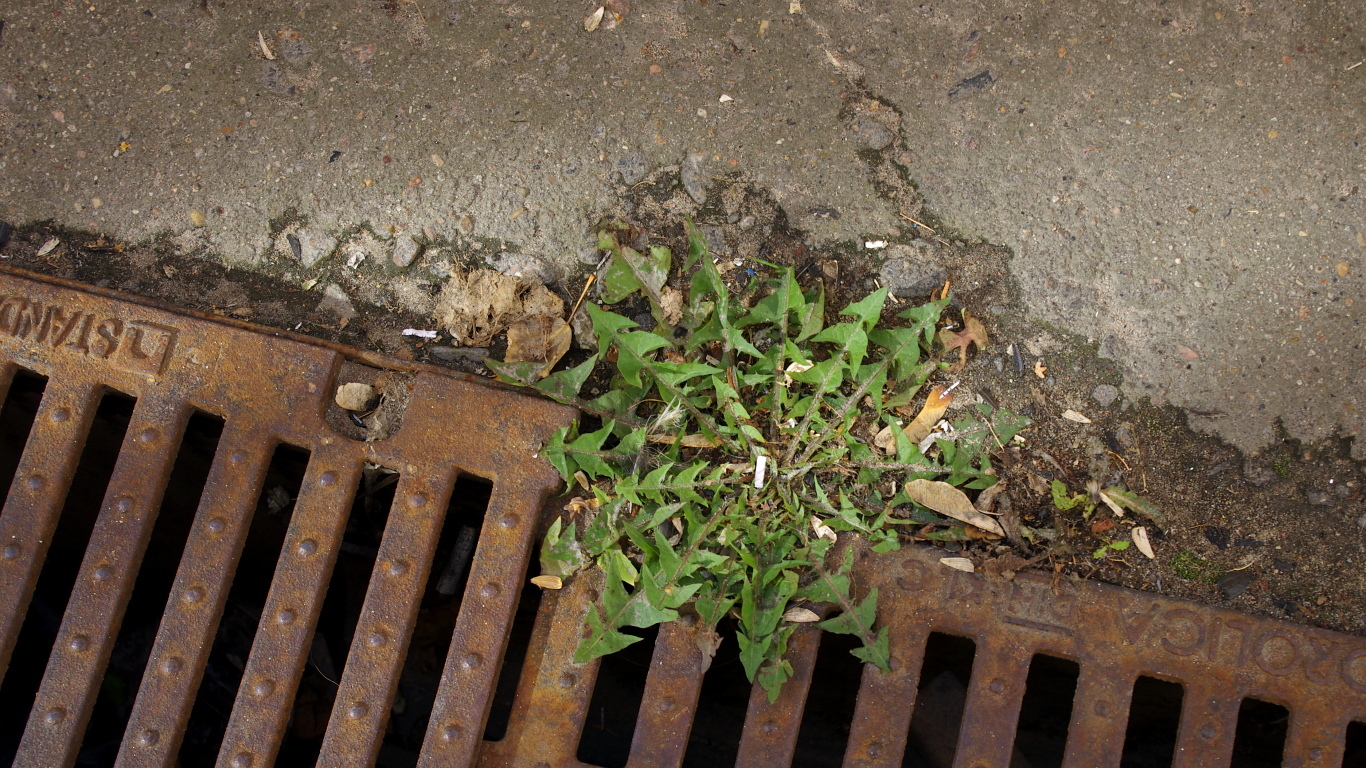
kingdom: Plantae
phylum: Tracheophyta
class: Magnoliopsida
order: Asterales
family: Asteraceae
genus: Taraxacum
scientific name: Taraxacum officinale
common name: Common dandelion
